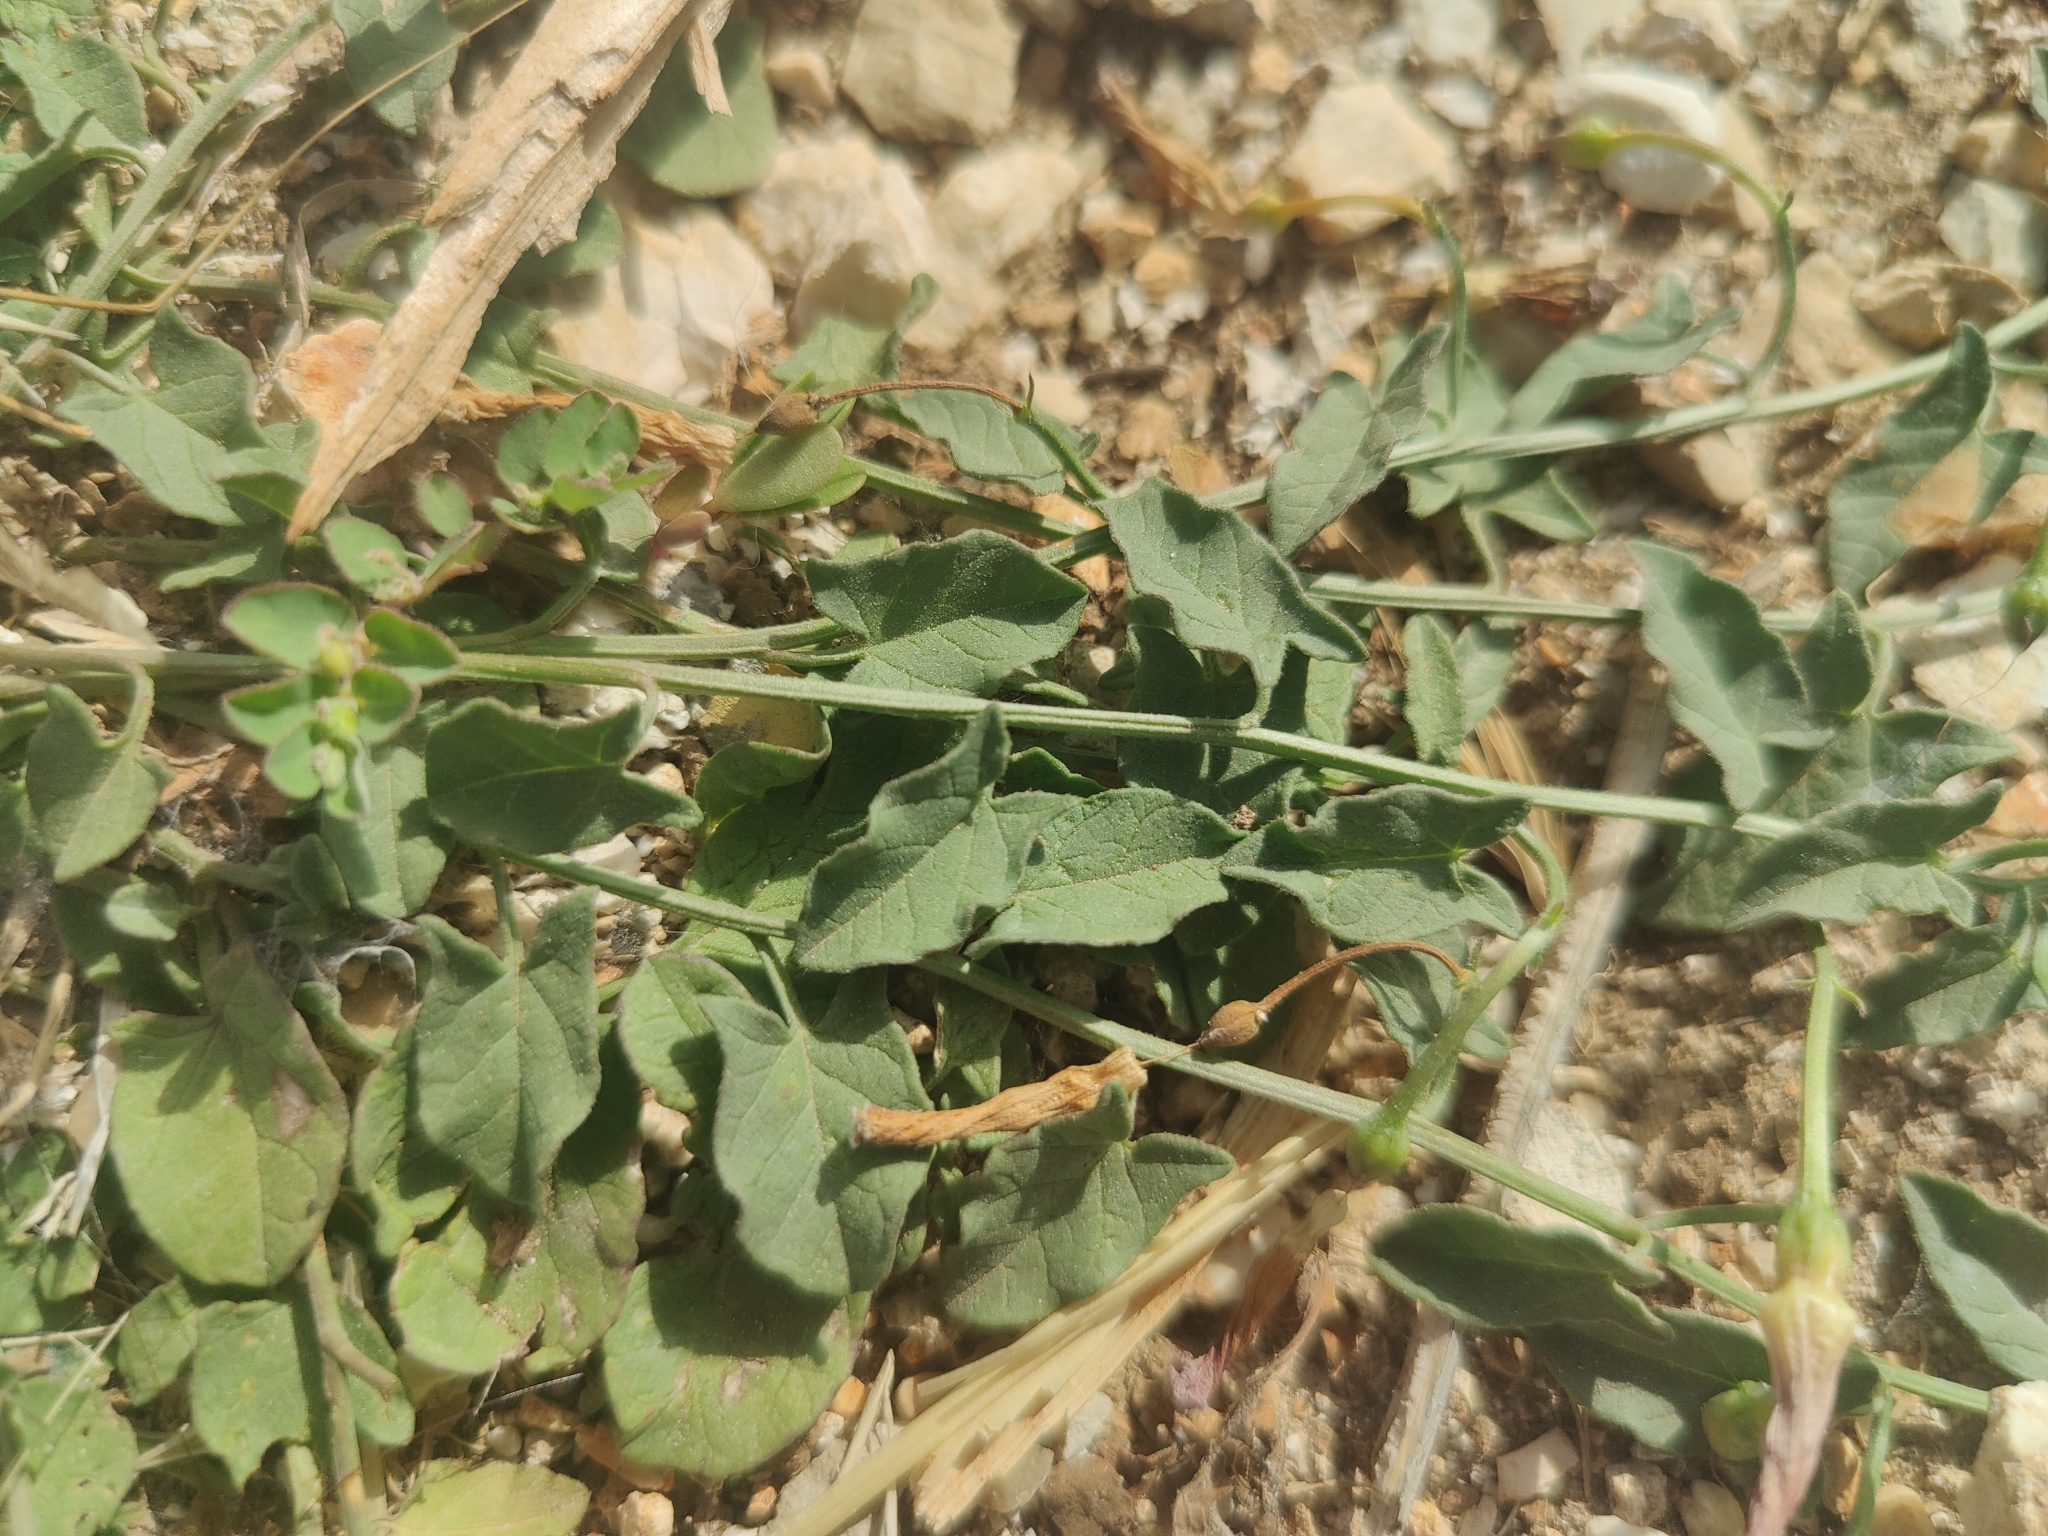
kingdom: Plantae
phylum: Tracheophyta
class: Magnoliopsida
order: Solanales
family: Convolvulaceae
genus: Convolvulus
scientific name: Convolvulus arvensis
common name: Field bindweed
